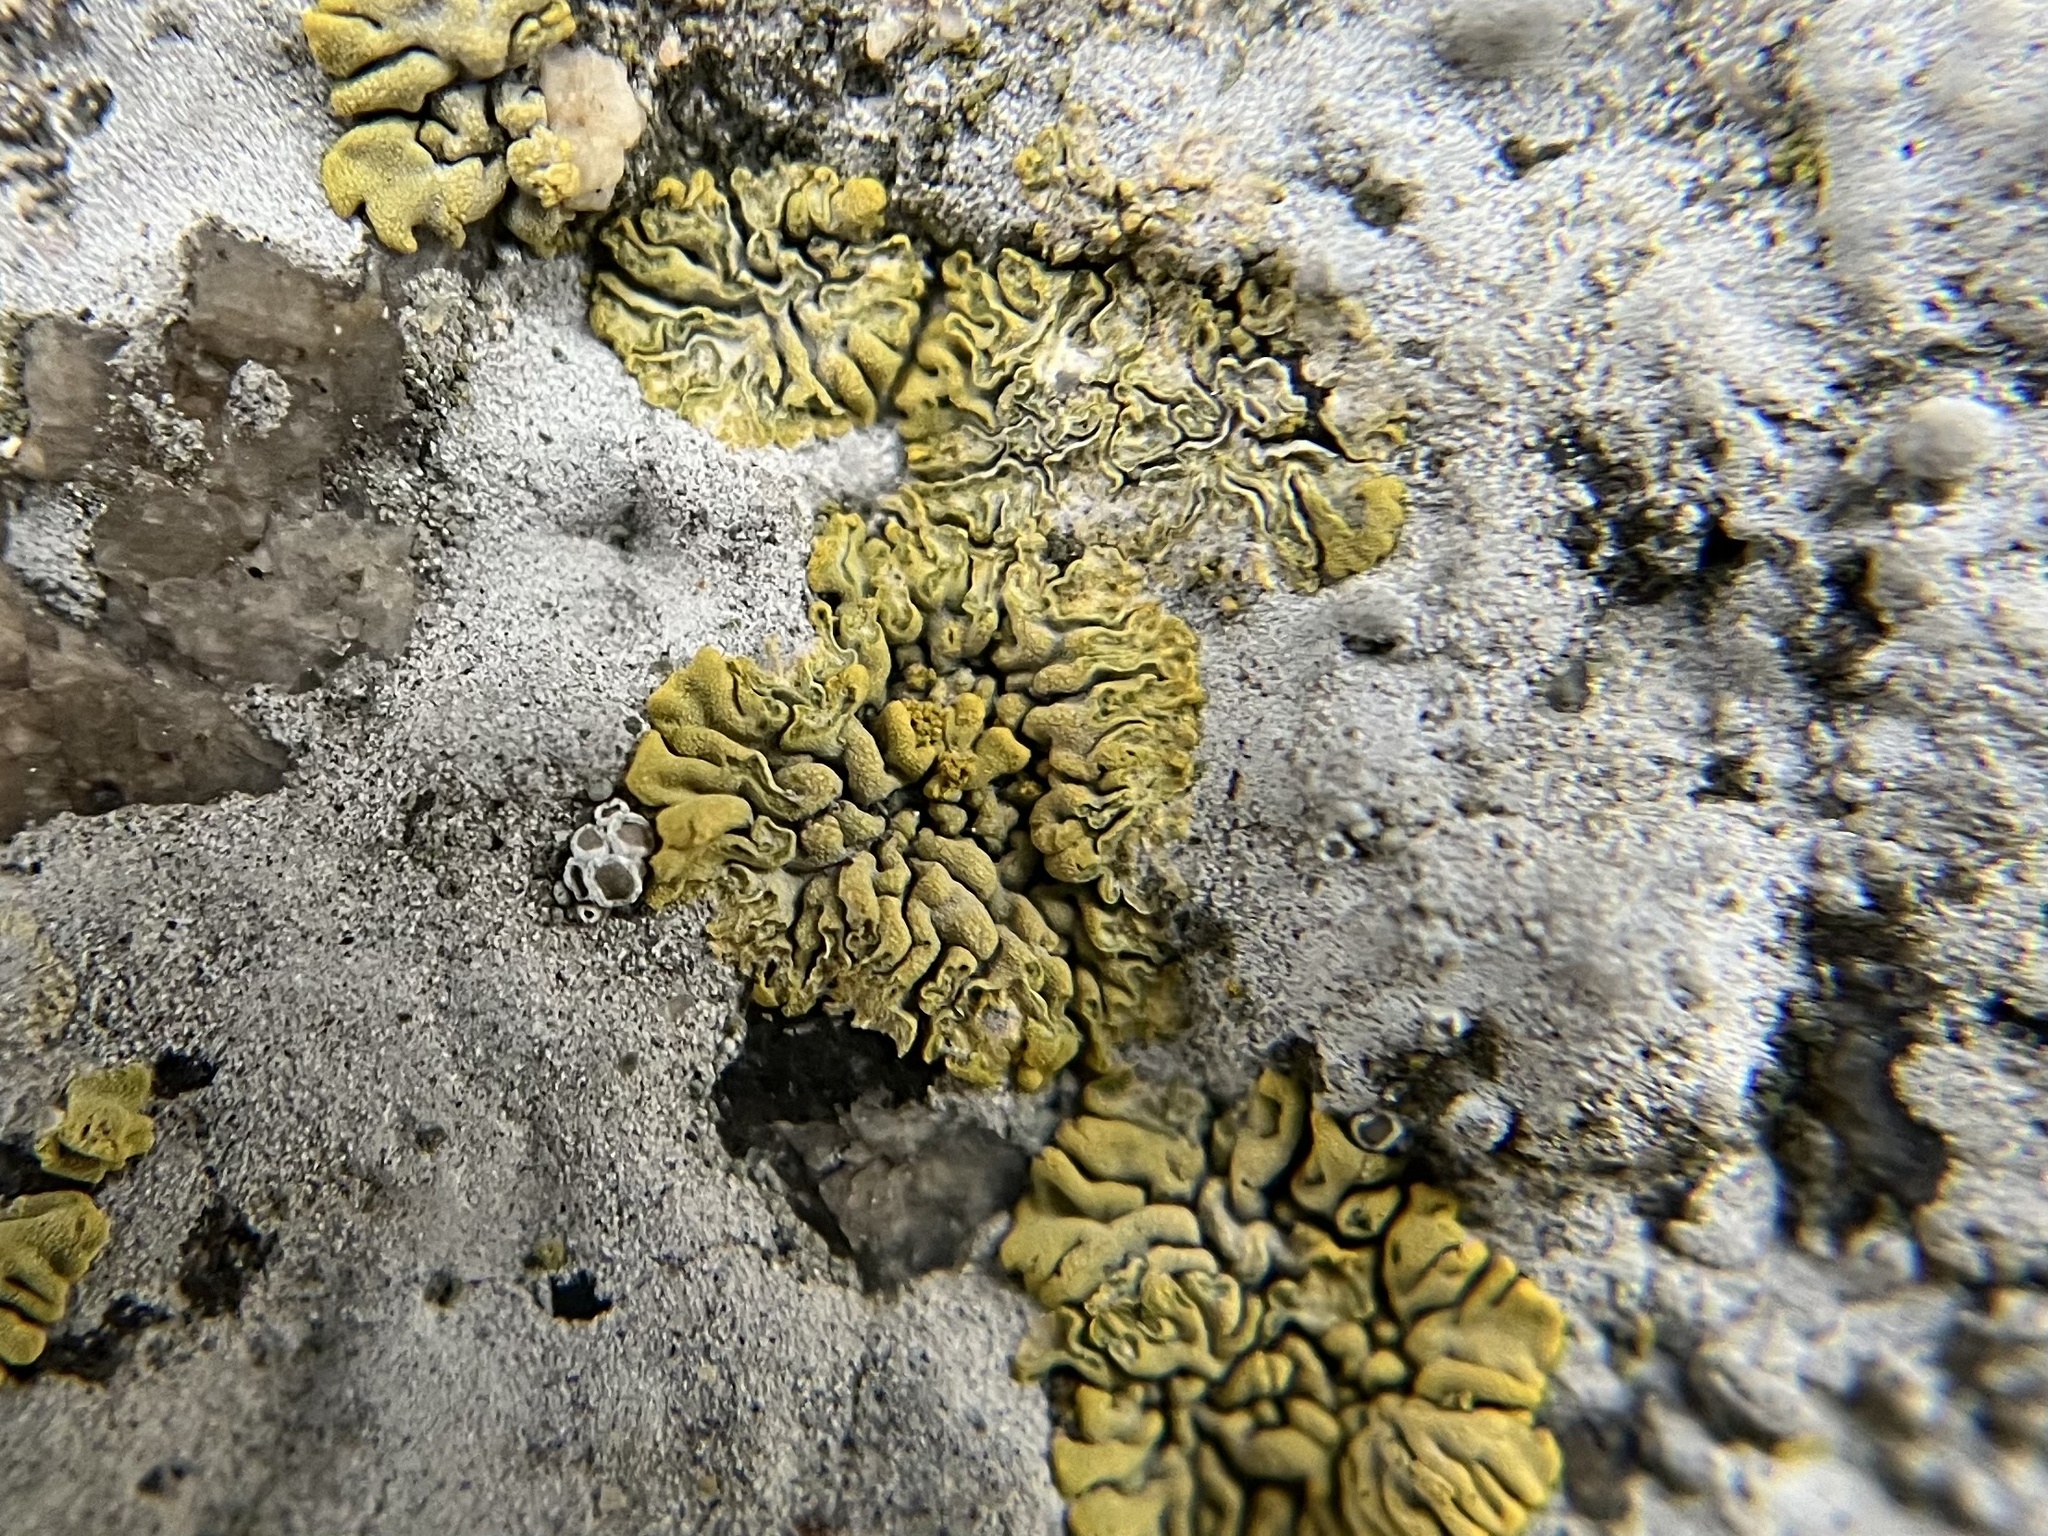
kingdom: Fungi
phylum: Ascomycota
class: Lecanoromycetes
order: Teloschistales
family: Teloschistaceae
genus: Calogaya
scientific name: Calogaya decipiens
